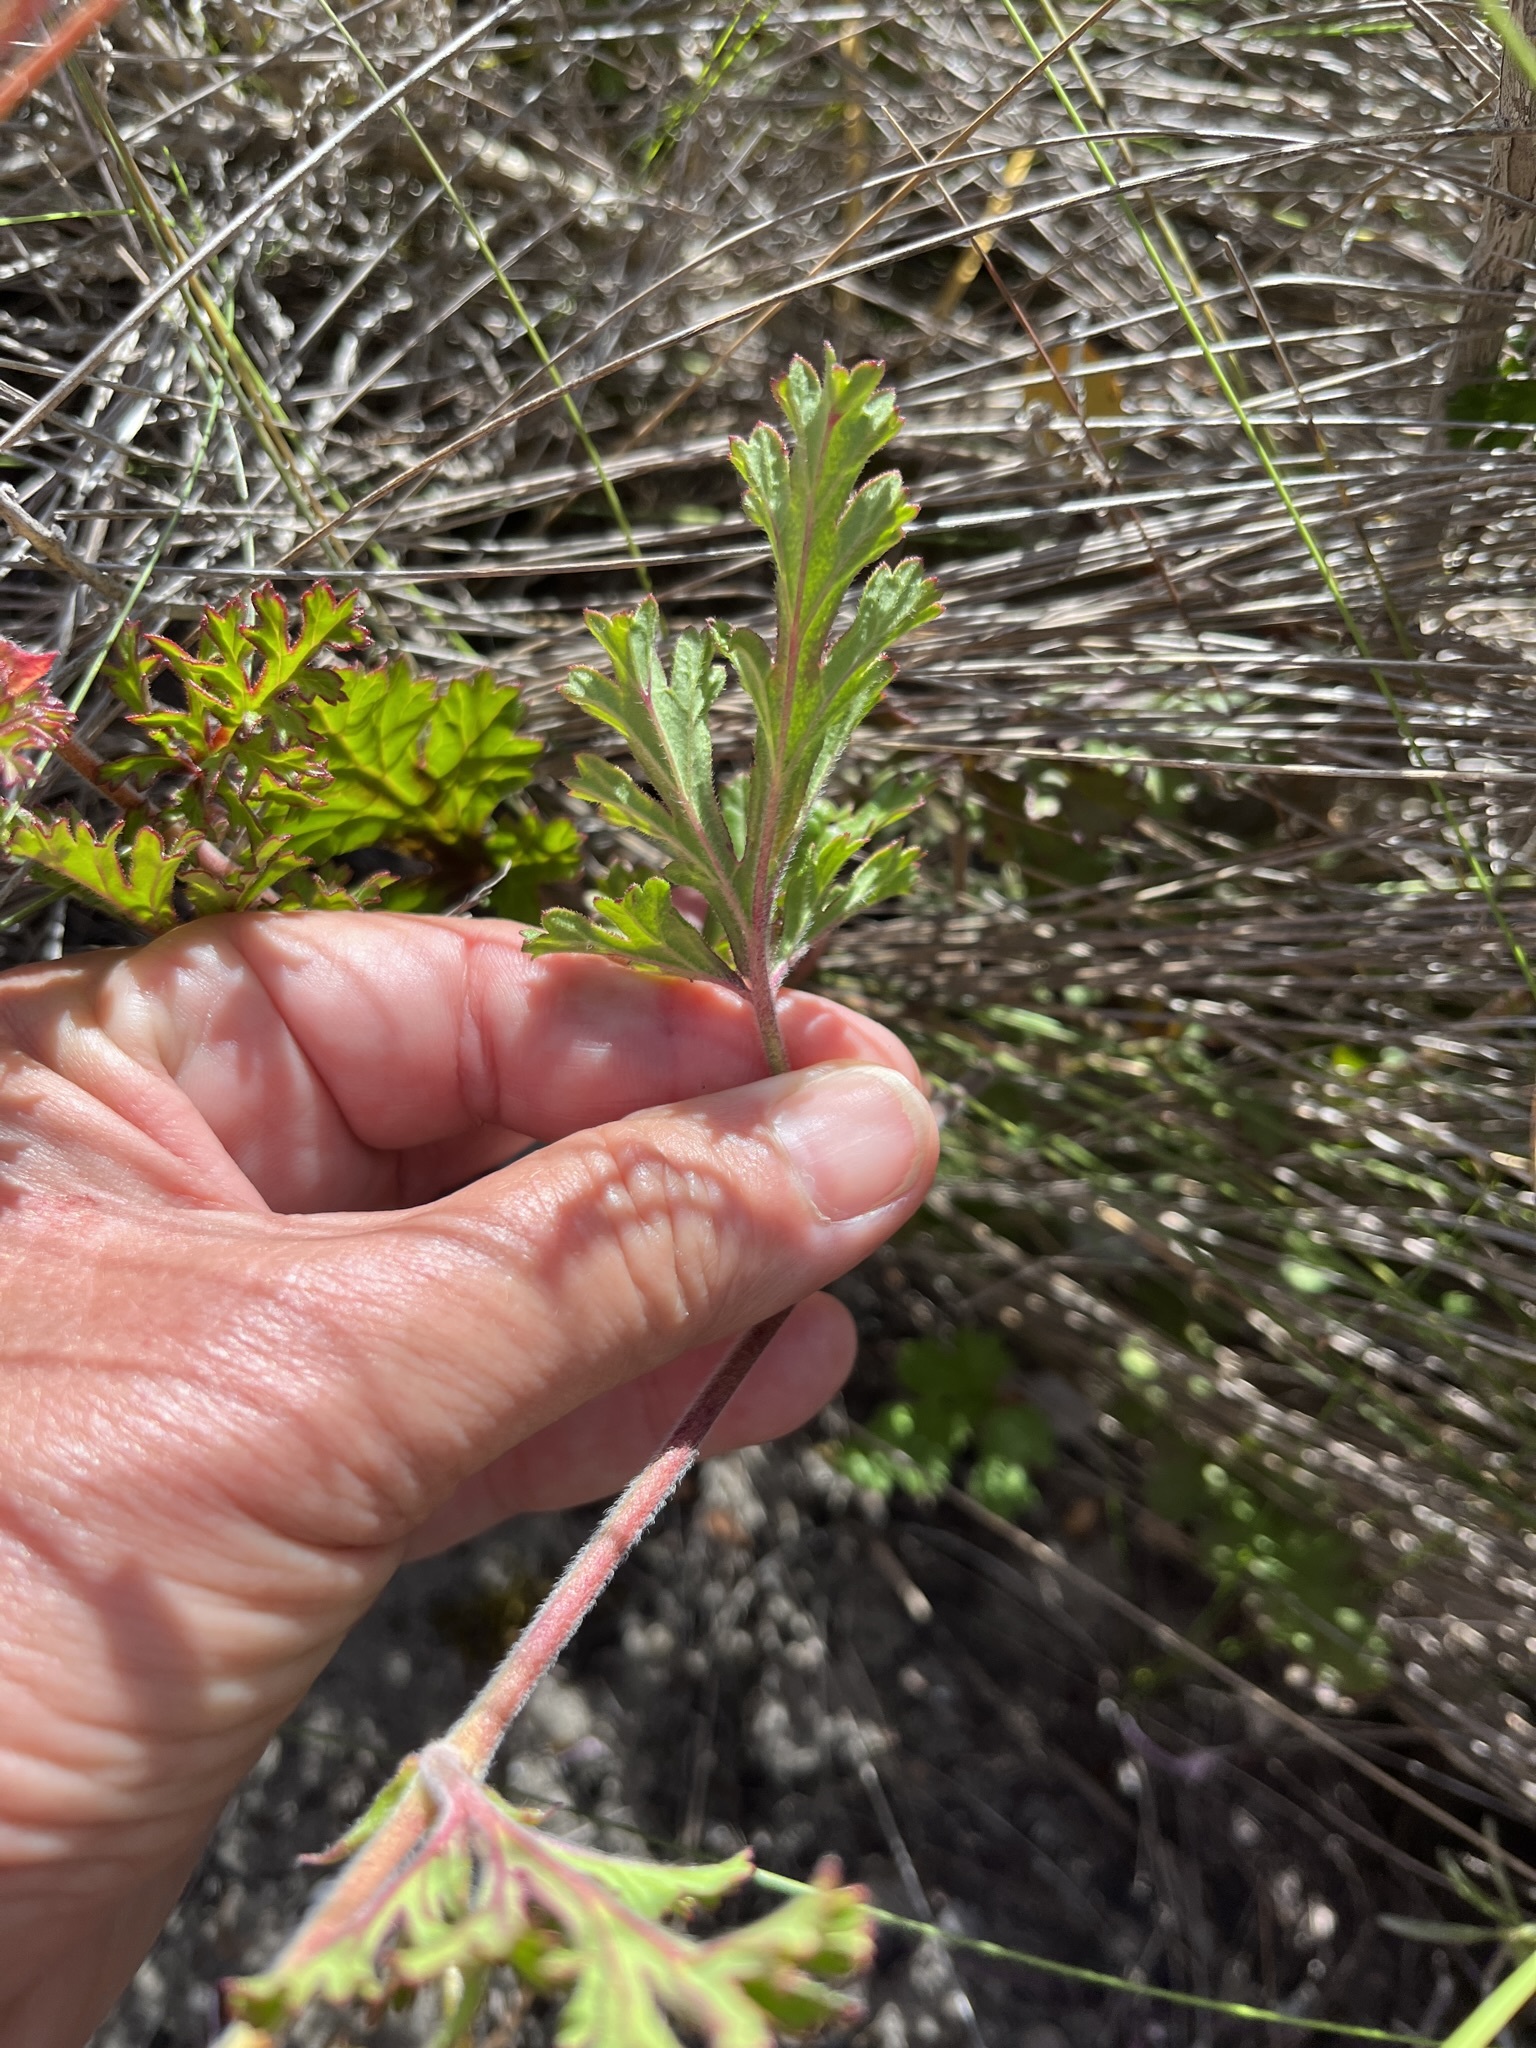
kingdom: Plantae
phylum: Tracheophyta
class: Magnoliopsida
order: Geraniales
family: Geraniaceae
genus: Pelargonium
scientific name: Pelargonium longicaule
